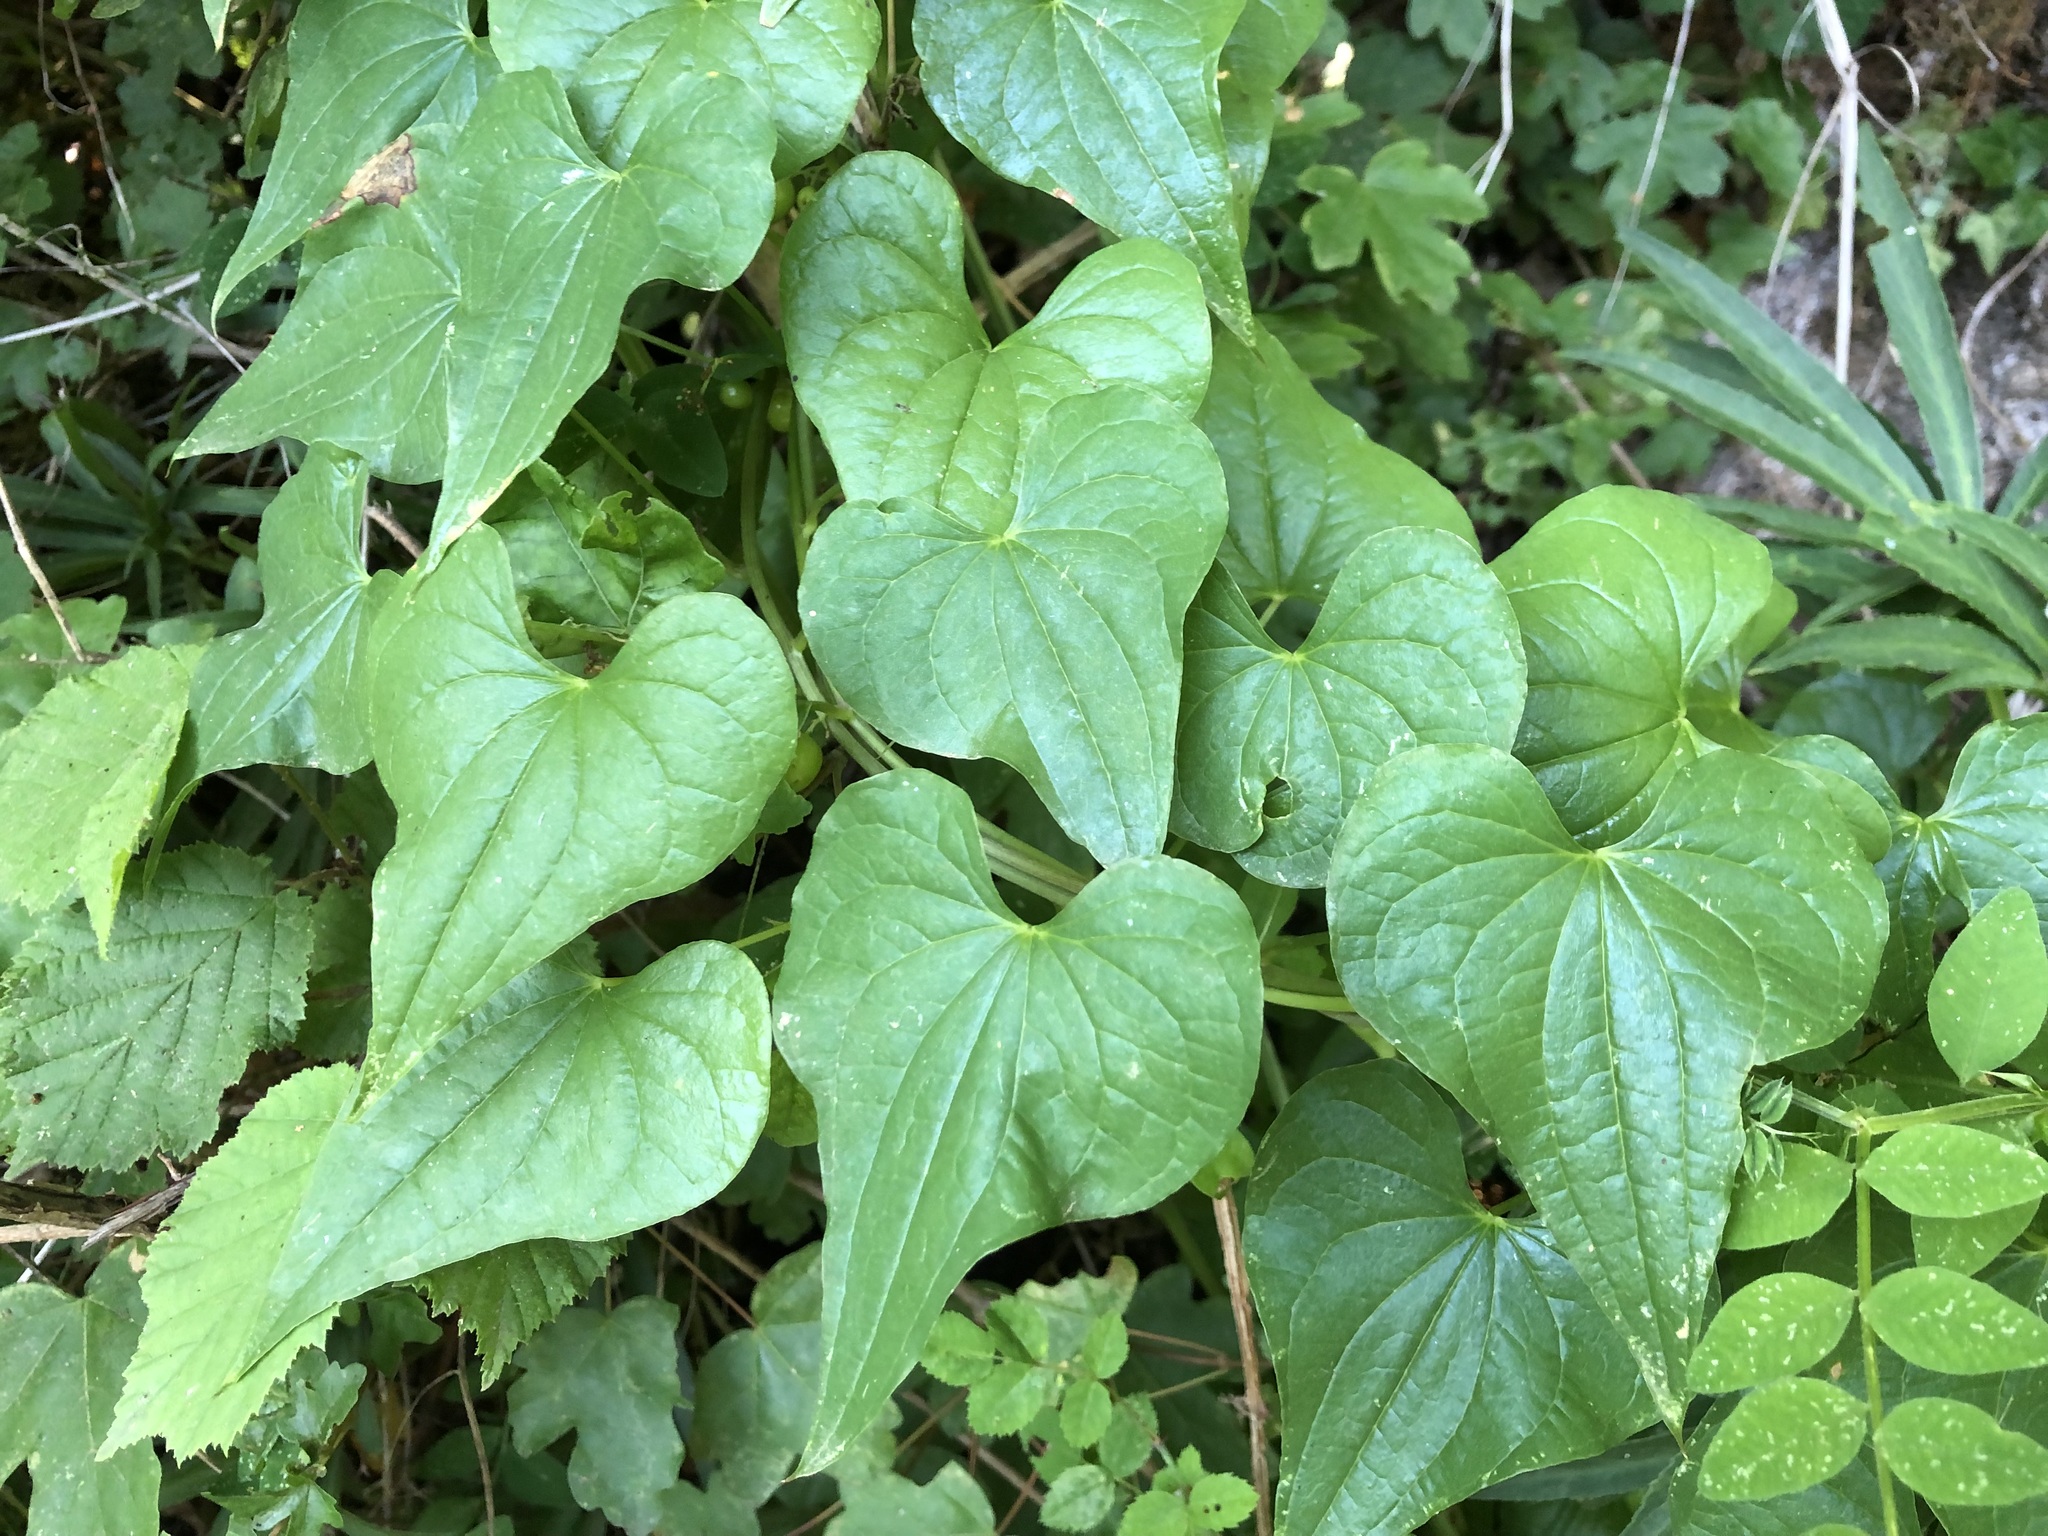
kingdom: Plantae
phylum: Tracheophyta
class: Liliopsida
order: Dioscoreales
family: Dioscoreaceae
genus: Dioscorea
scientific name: Dioscorea communis
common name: Black-bindweed
